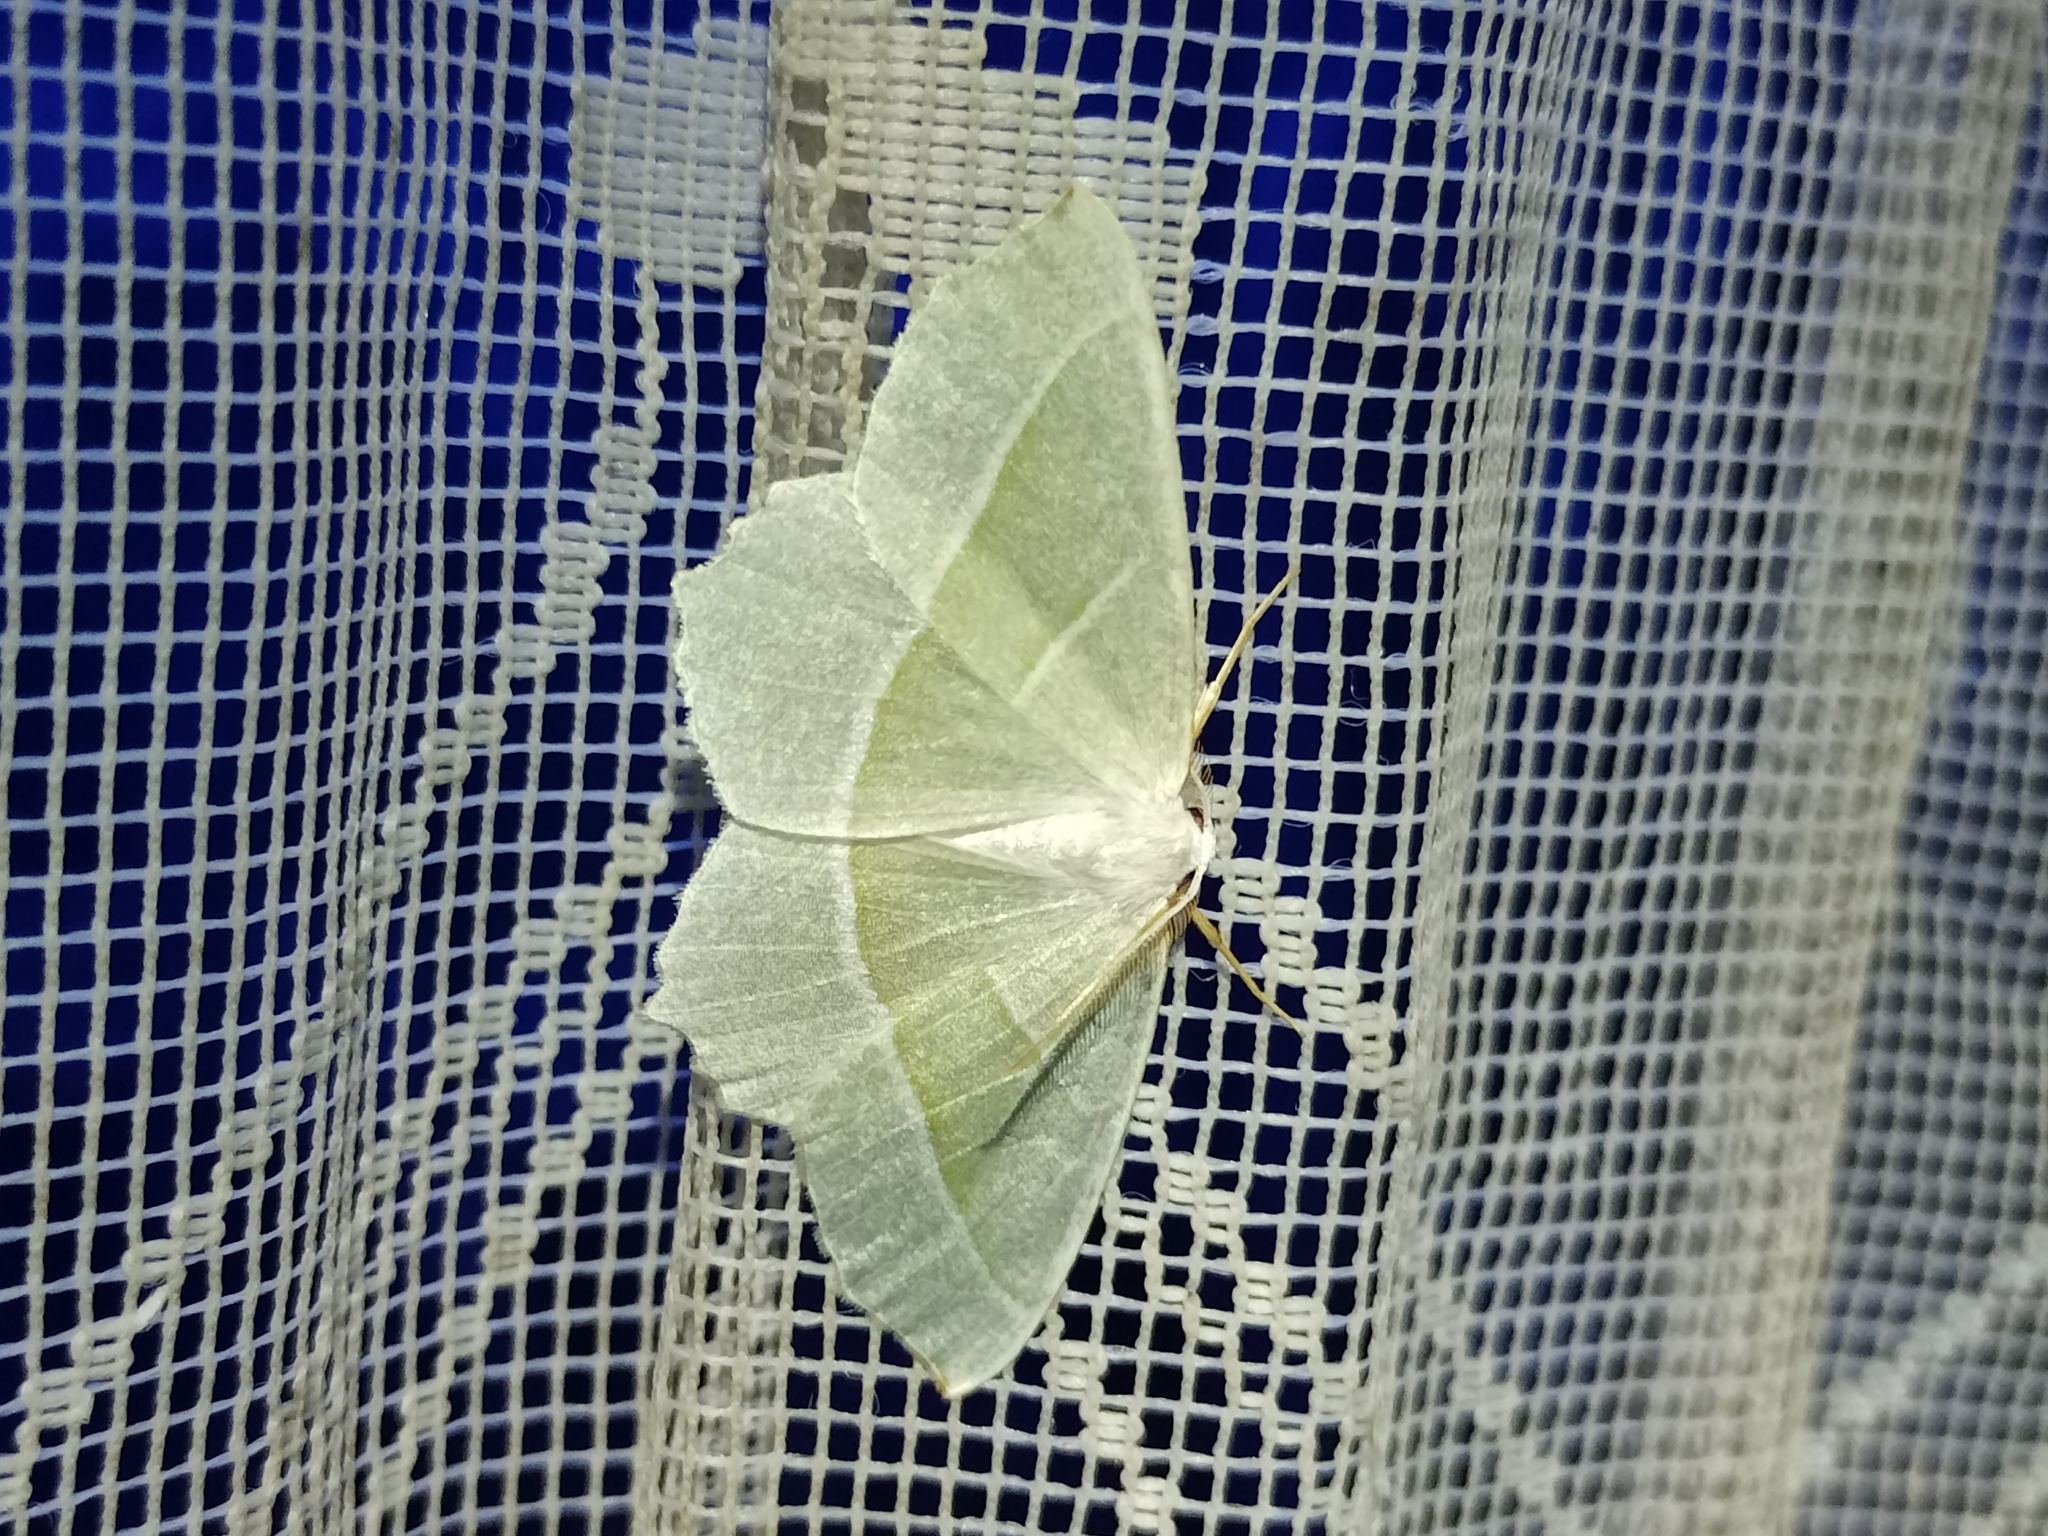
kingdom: Animalia
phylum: Arthropoda
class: Insecta
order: Lepidoptera
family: Geometridae
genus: Campaea
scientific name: Campaea margaritaria
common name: Light emerald
